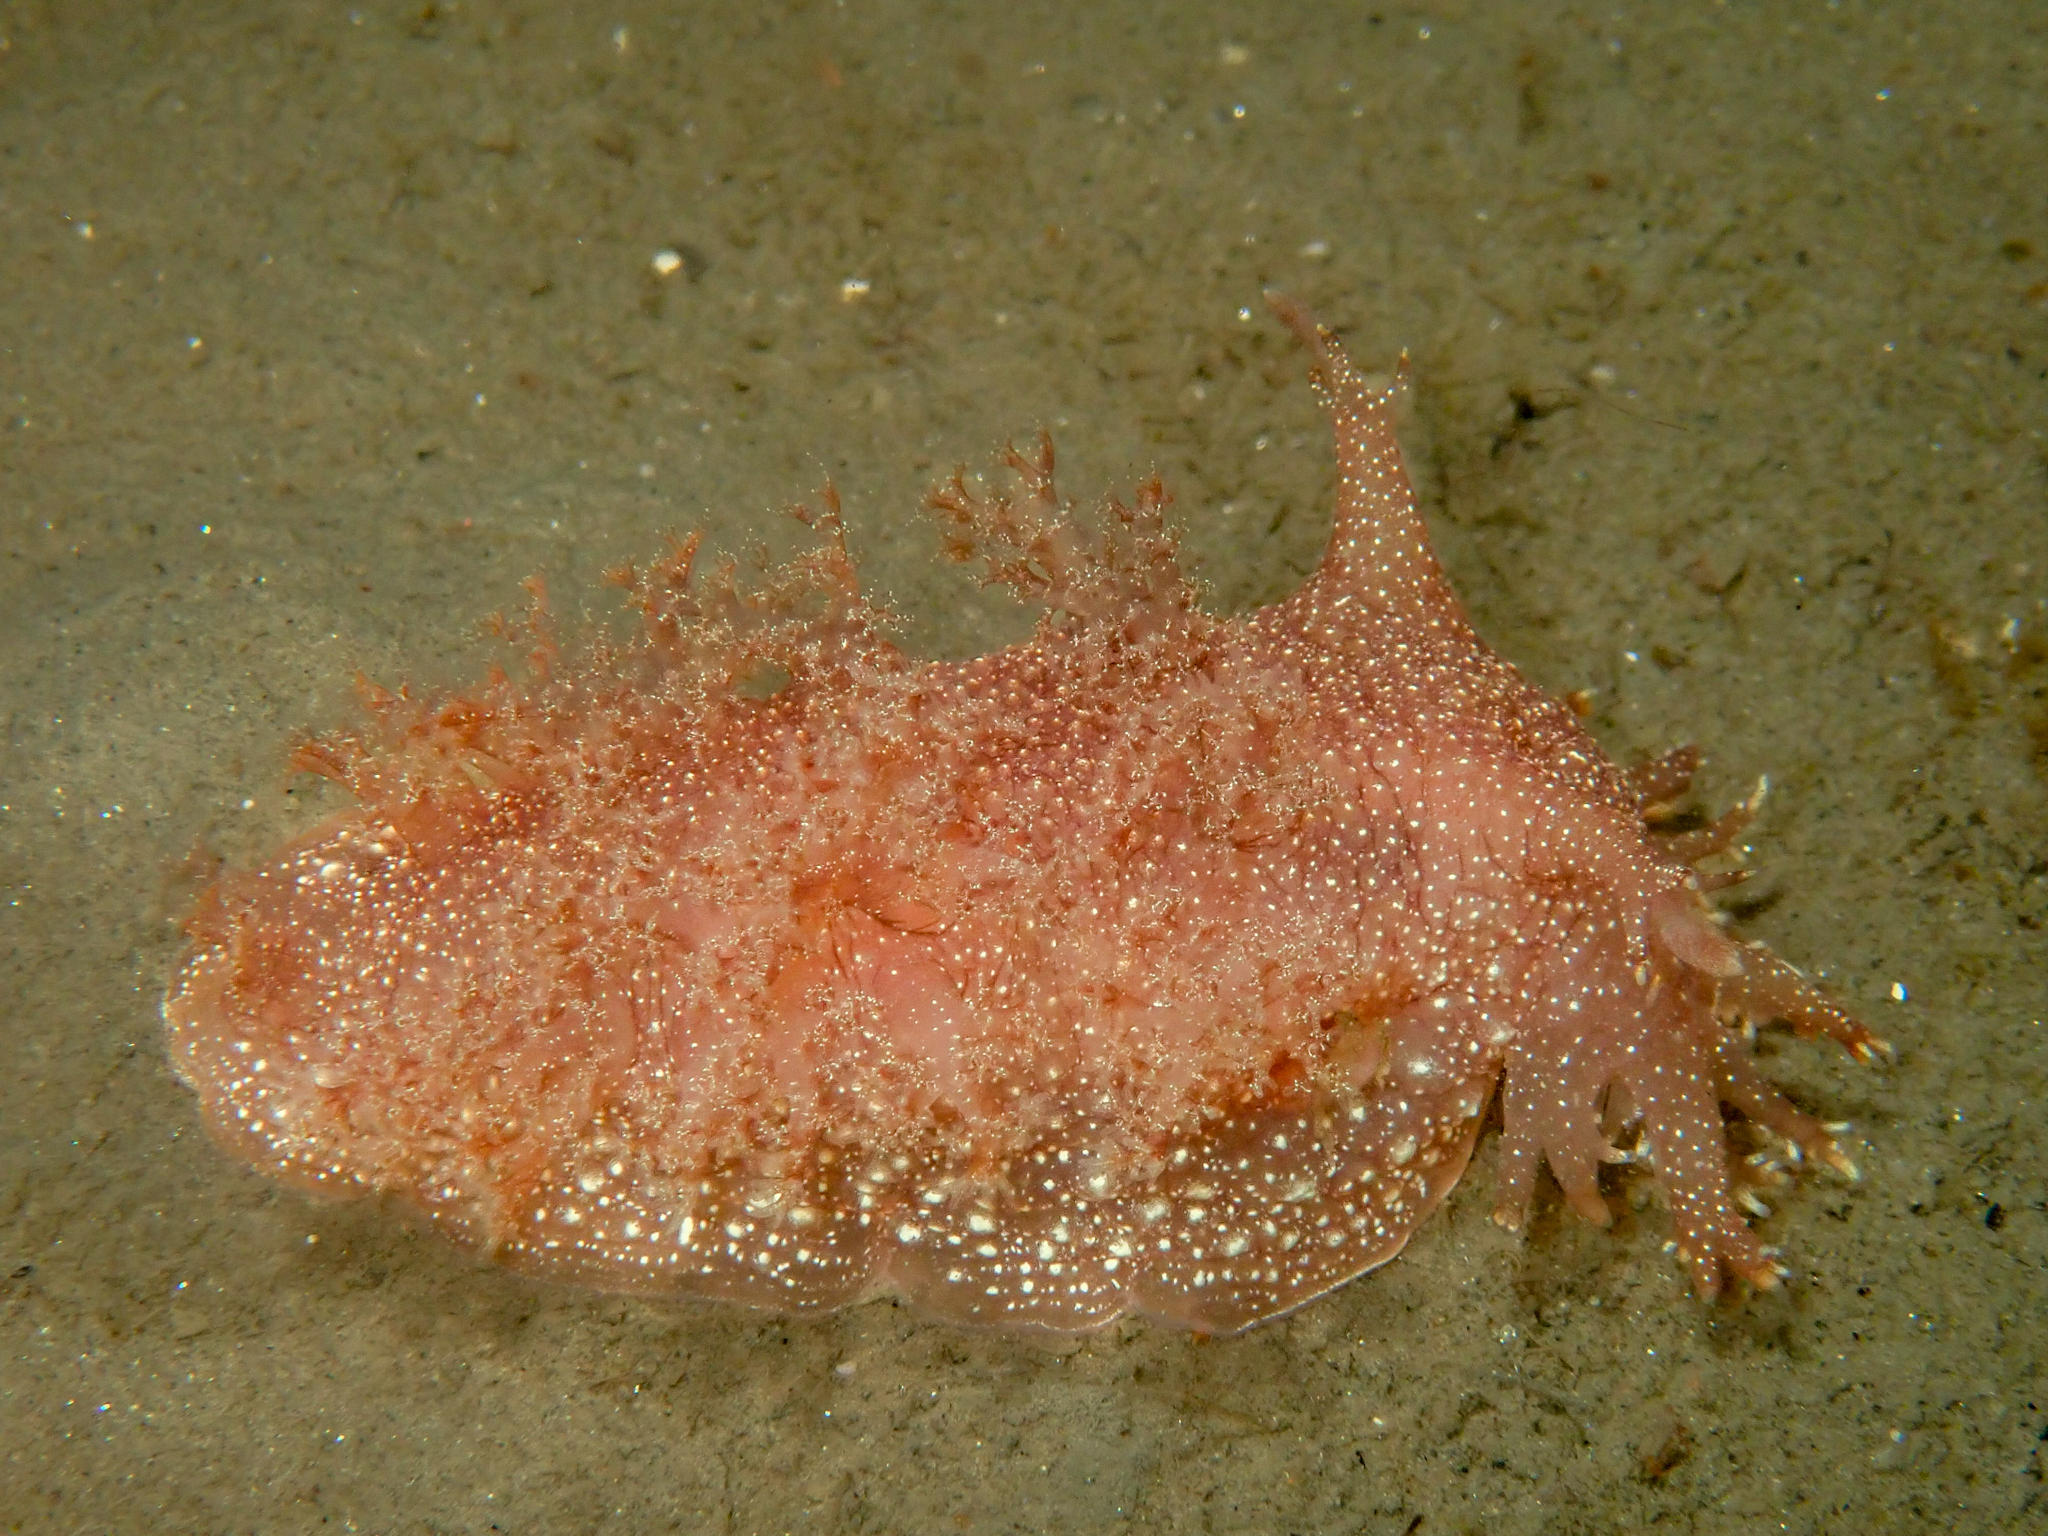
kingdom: Animalia
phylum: Mollusca
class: Gastropoda
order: Nudibranchia
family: Dendronotidae
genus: Dendronotus
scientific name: Dendronotus robustus
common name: Robust frond-aeolis
